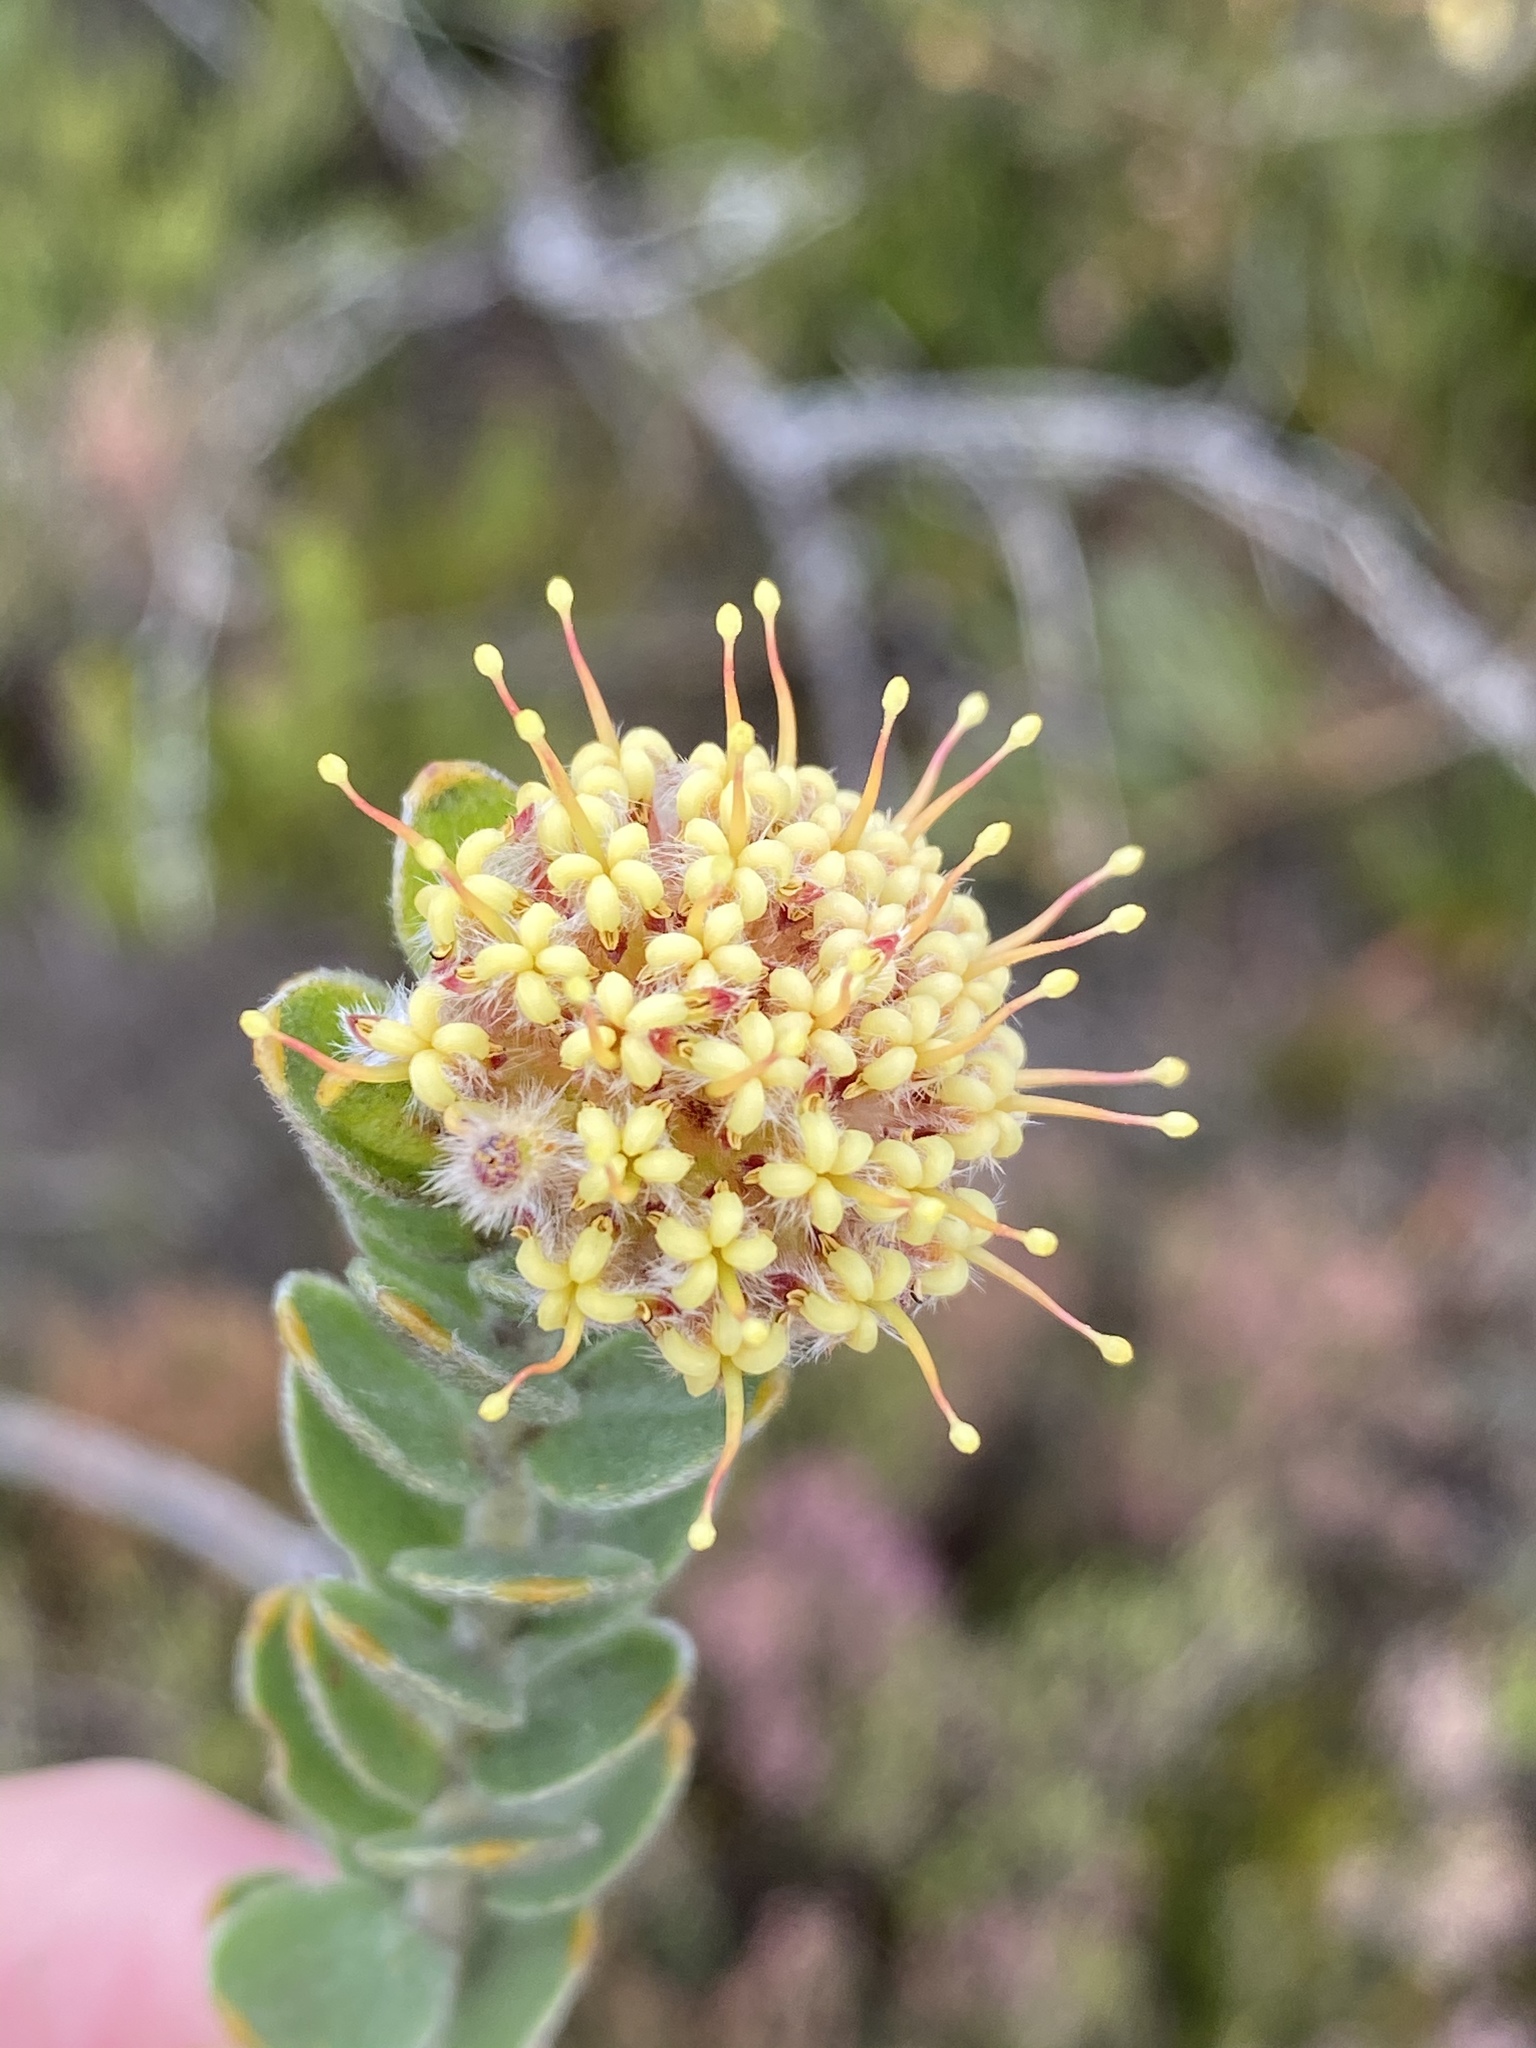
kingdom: Plantae
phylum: Tracheophyta
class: Magnoliopsida
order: Proteales
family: Proteaceae
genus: Leucospermum
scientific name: Leucospermum truncatulum
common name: Oval-leaf pincushion
